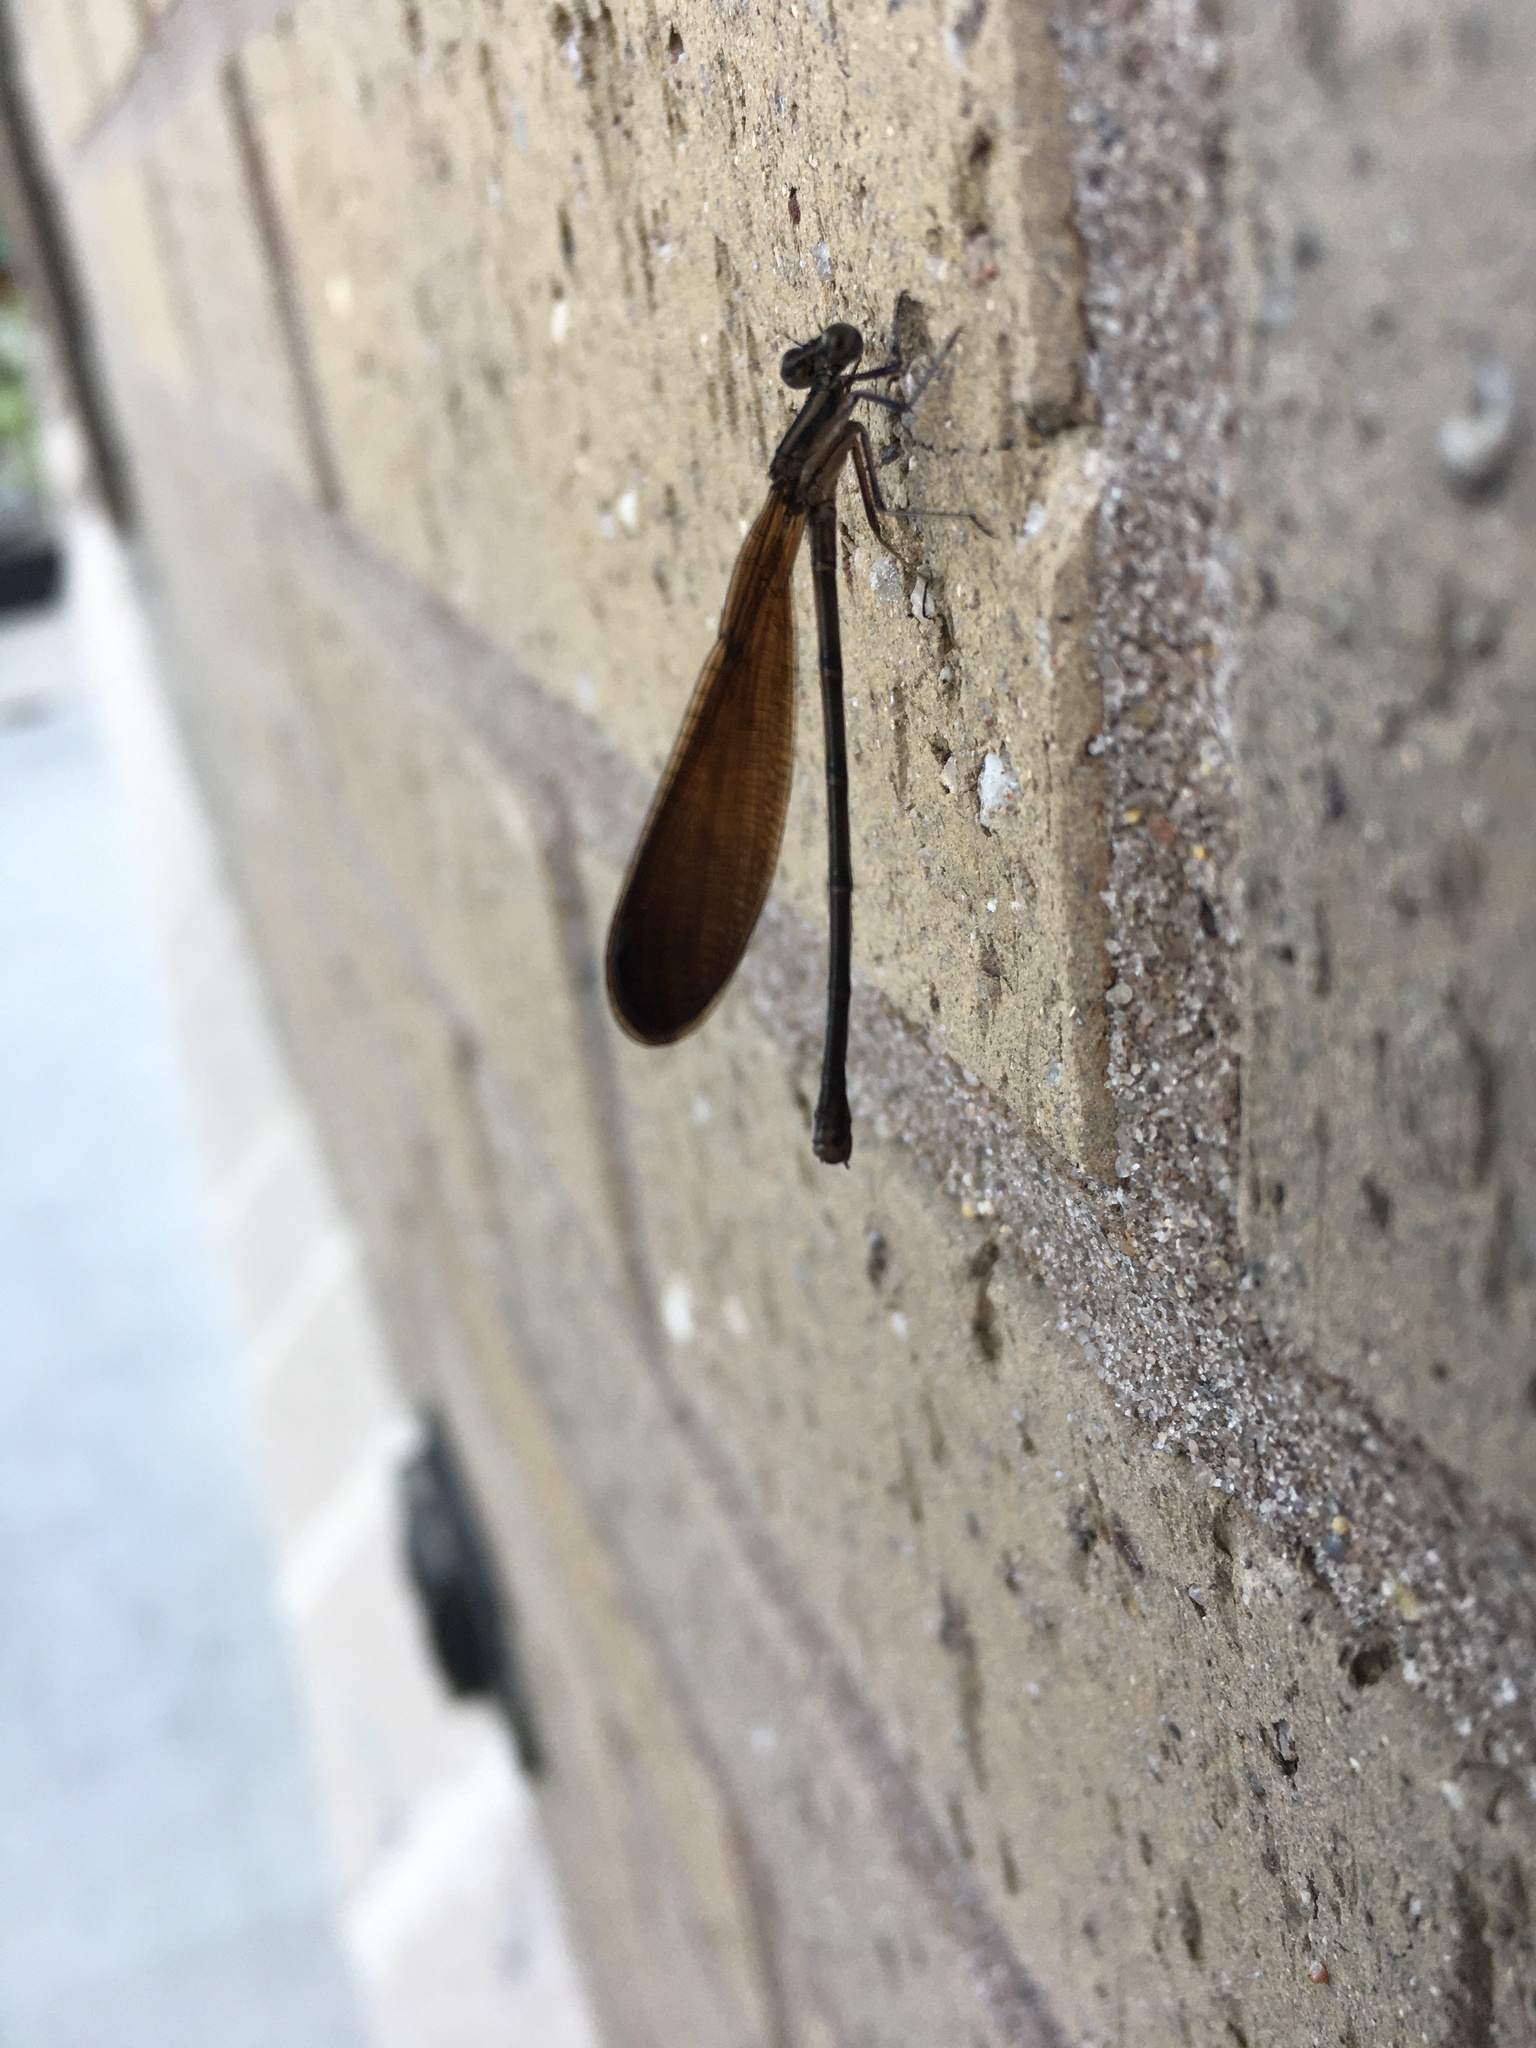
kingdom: Animalia
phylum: Arthropoda
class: Insecta
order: Odonata
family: Coenagrionidae
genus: Argia
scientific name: Argia fumipennis
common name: Variable dancer
